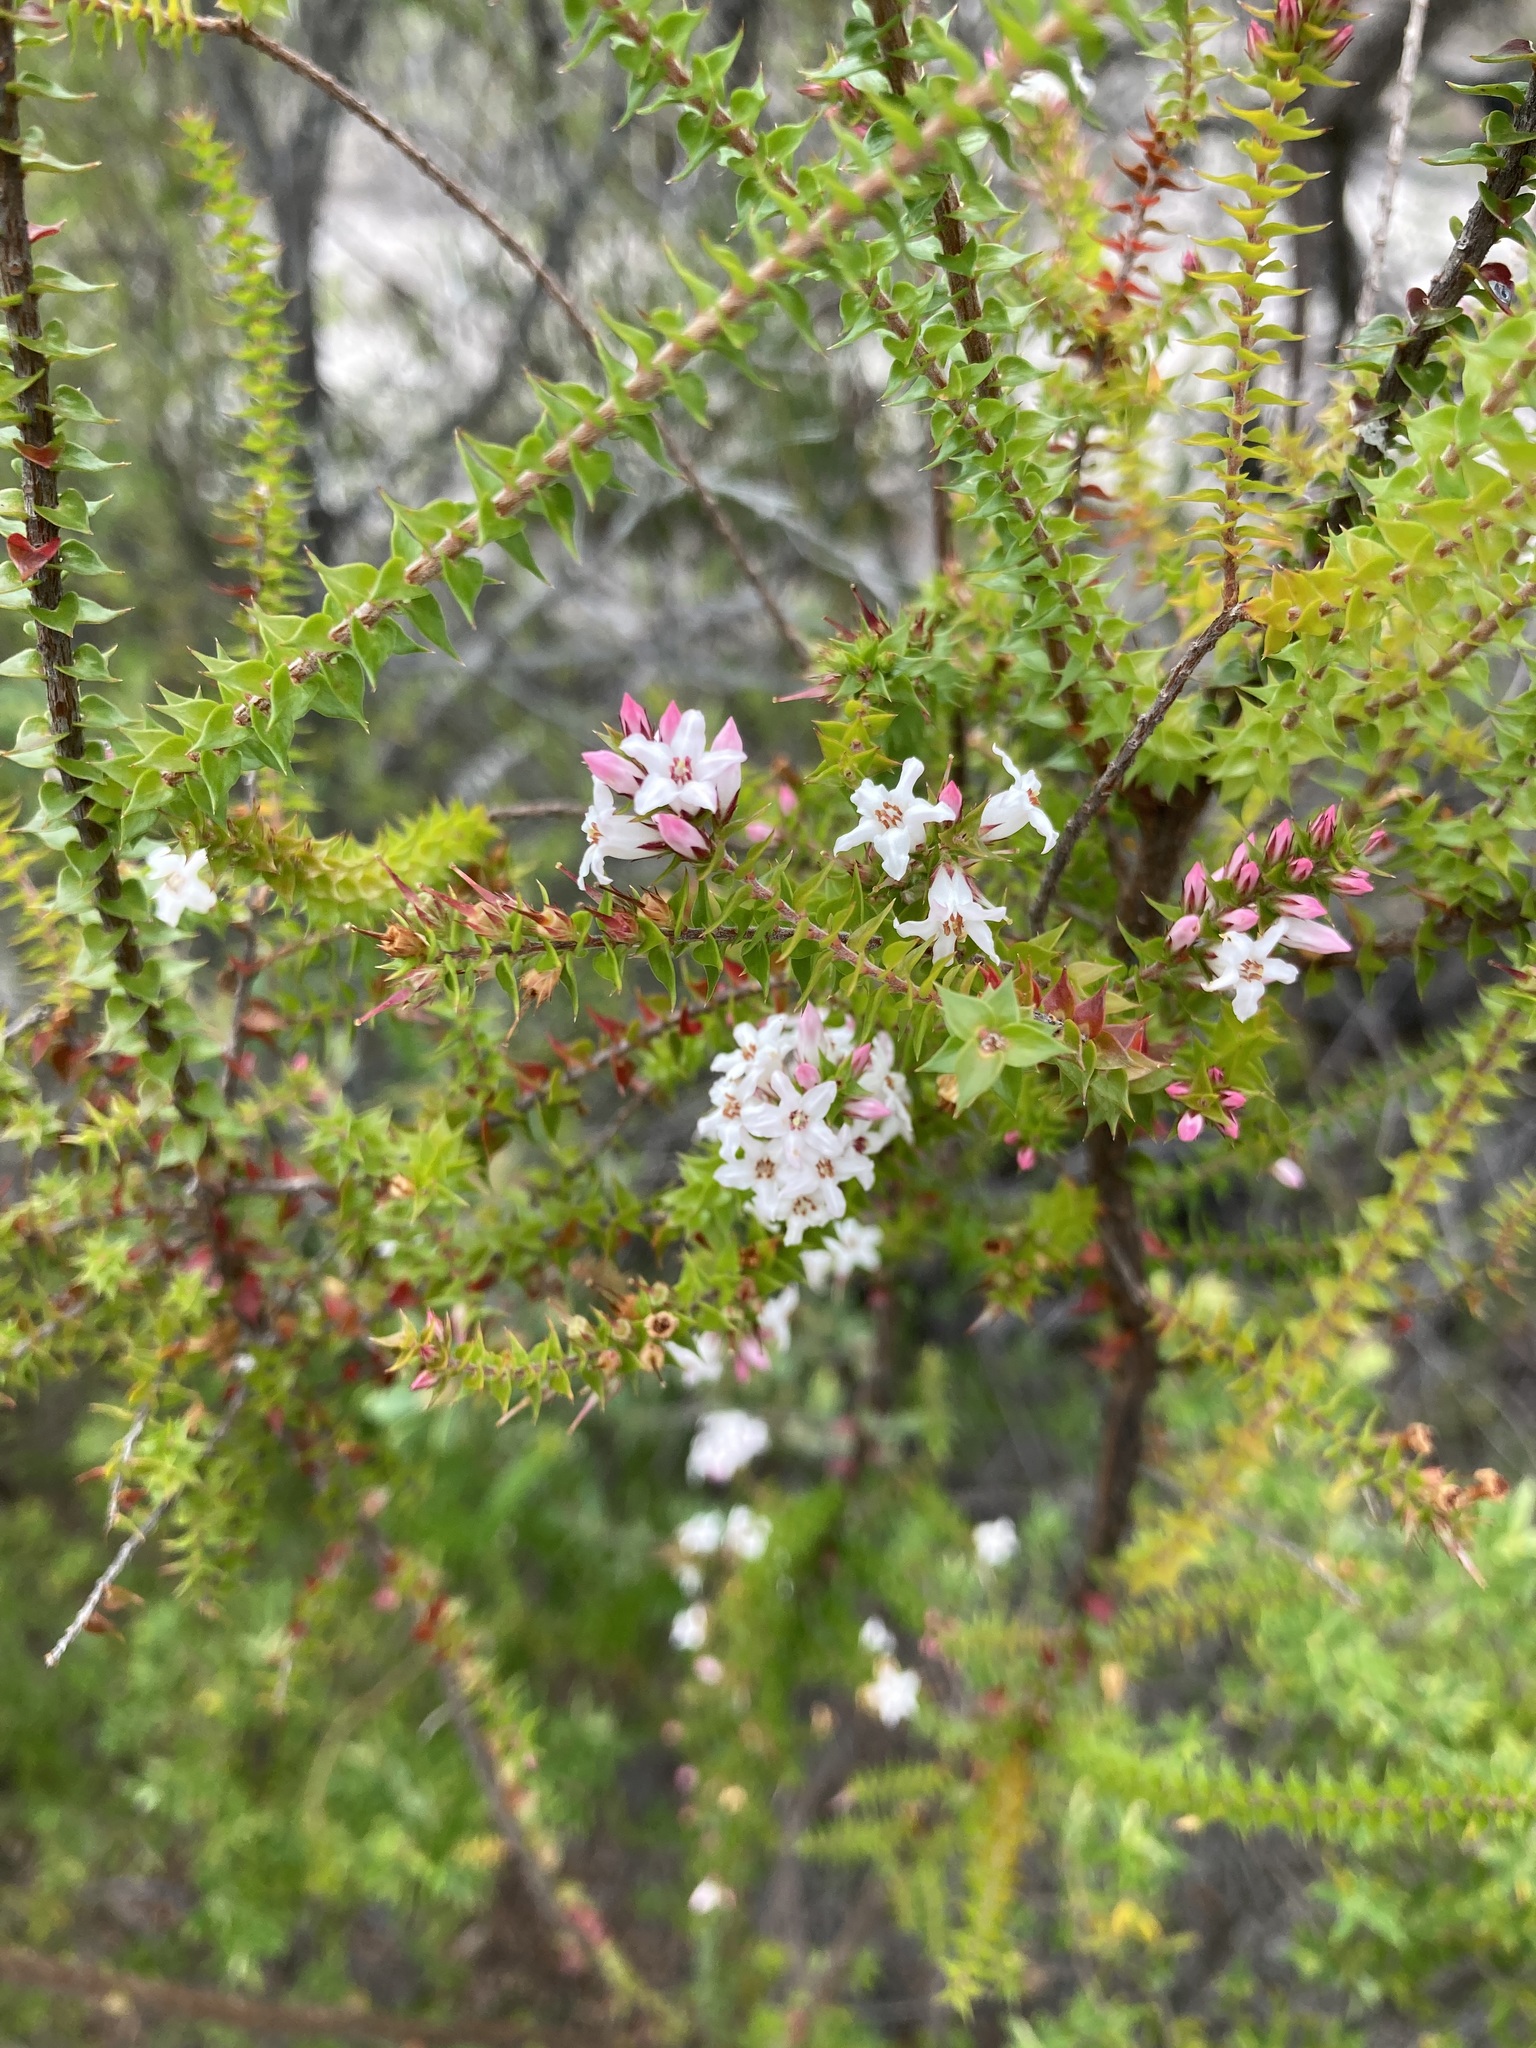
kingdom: Plantae
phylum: Tracheophyta
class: Magnoliopsida
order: Ericales
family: Ericaceae
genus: Epacris
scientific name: Epacris pulchella
